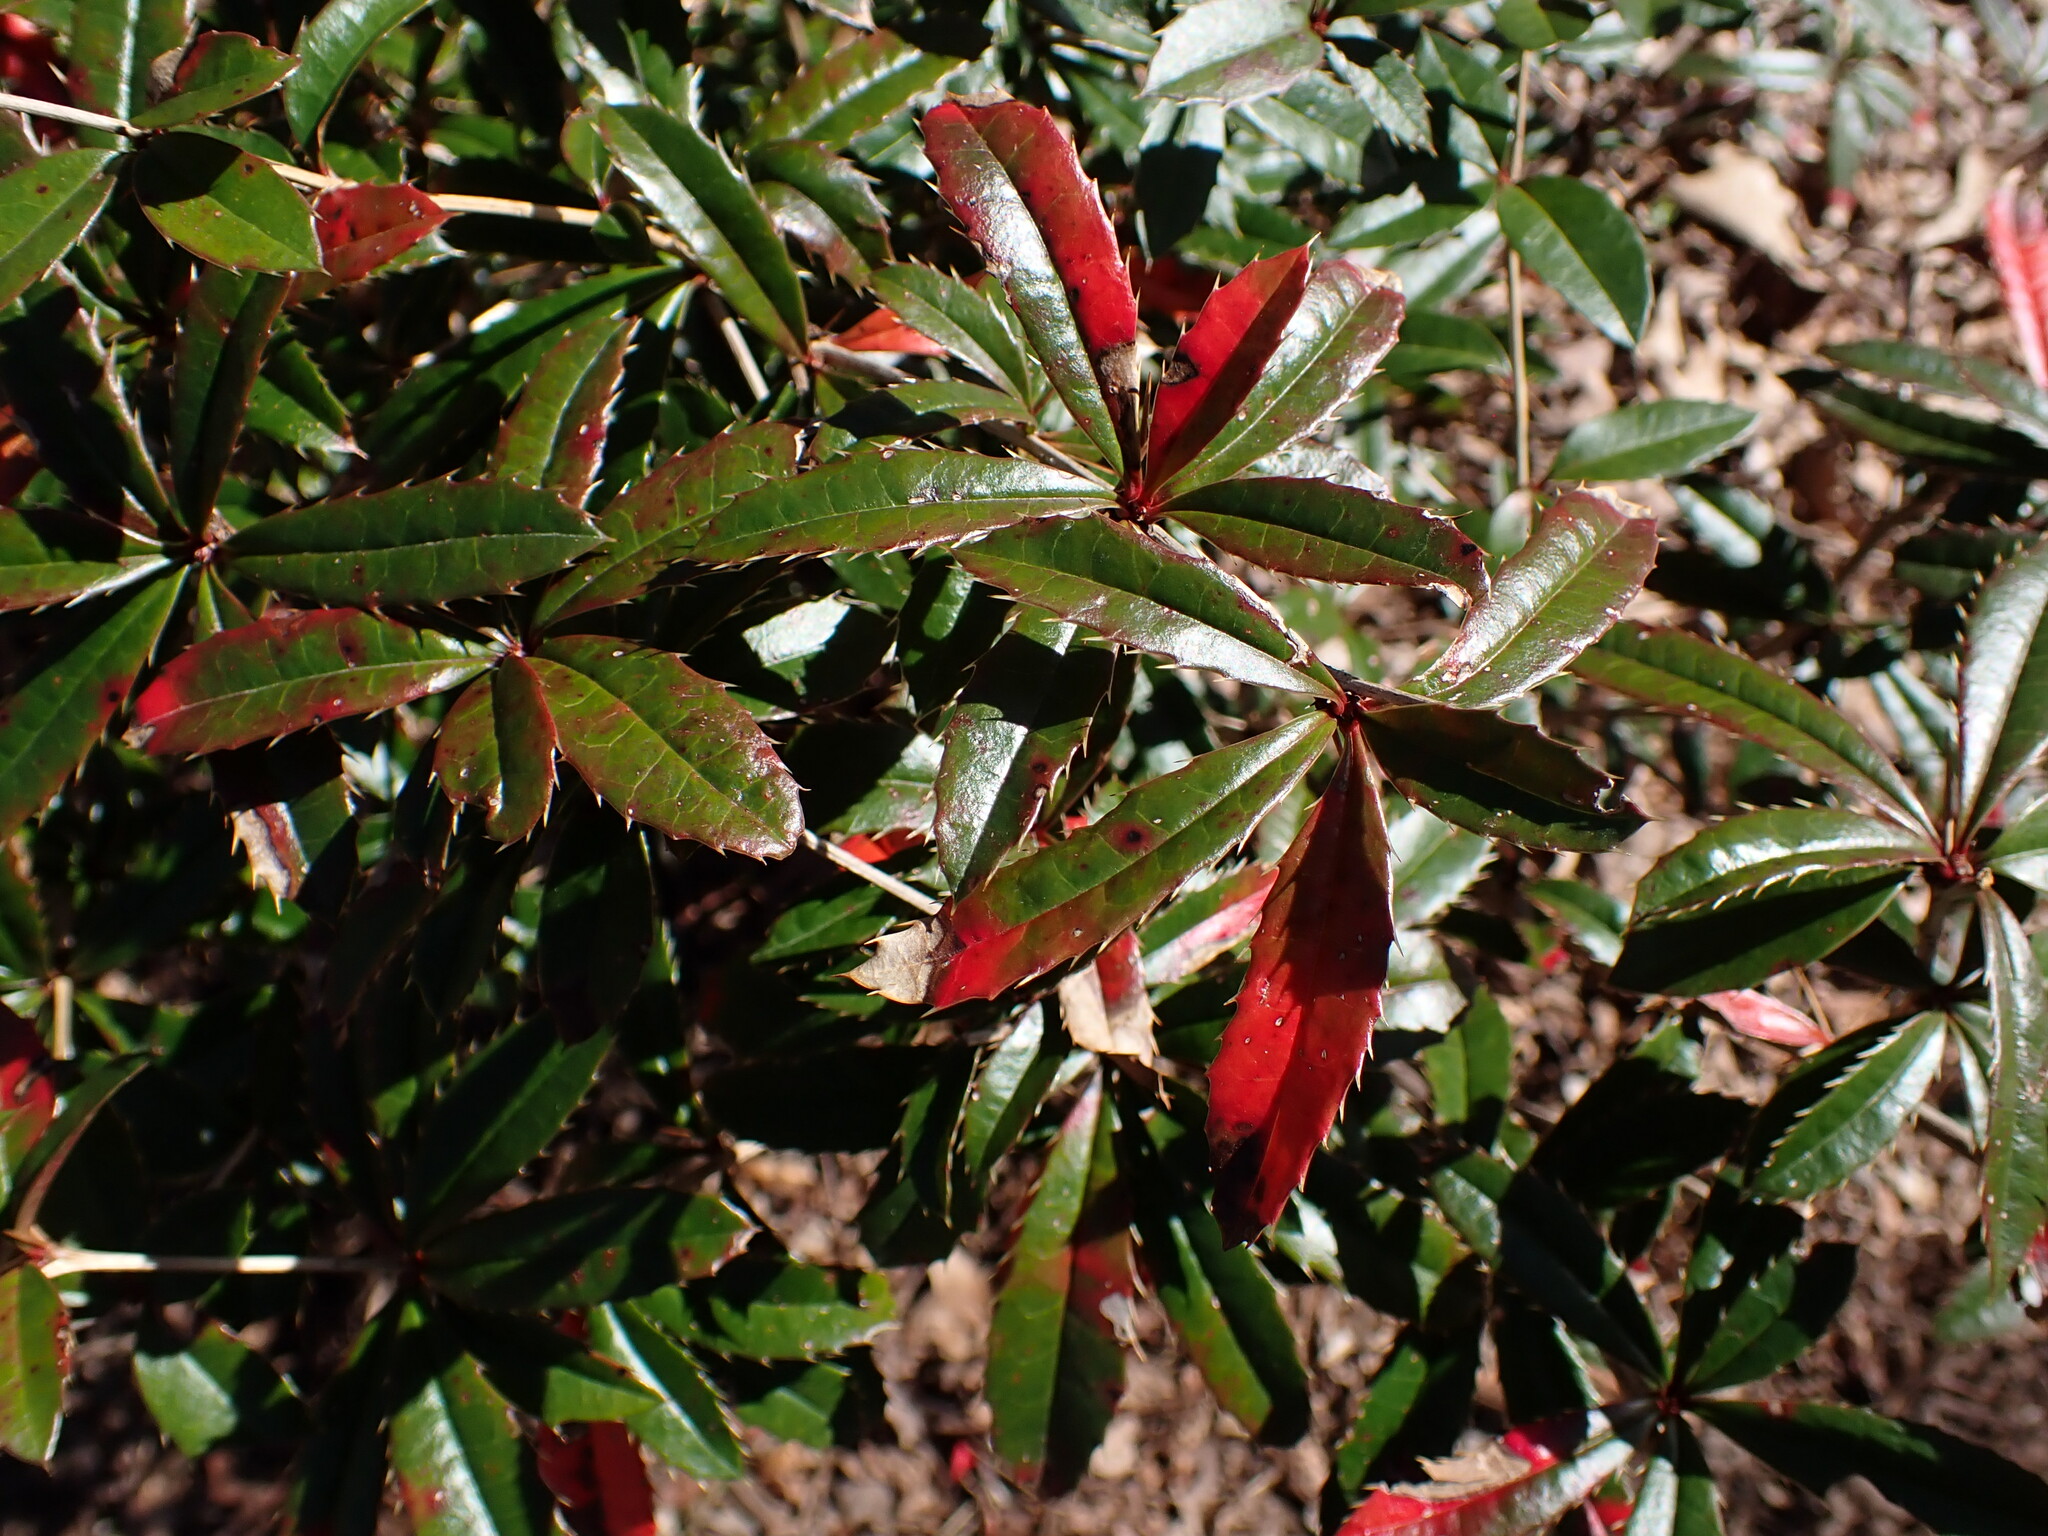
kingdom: Plantae
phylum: Tracheophyta
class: Magnoliopsida
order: Ranunculales
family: Berberidaceae
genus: Berberis
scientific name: Berberis julianae
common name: Wintergreen barberry
